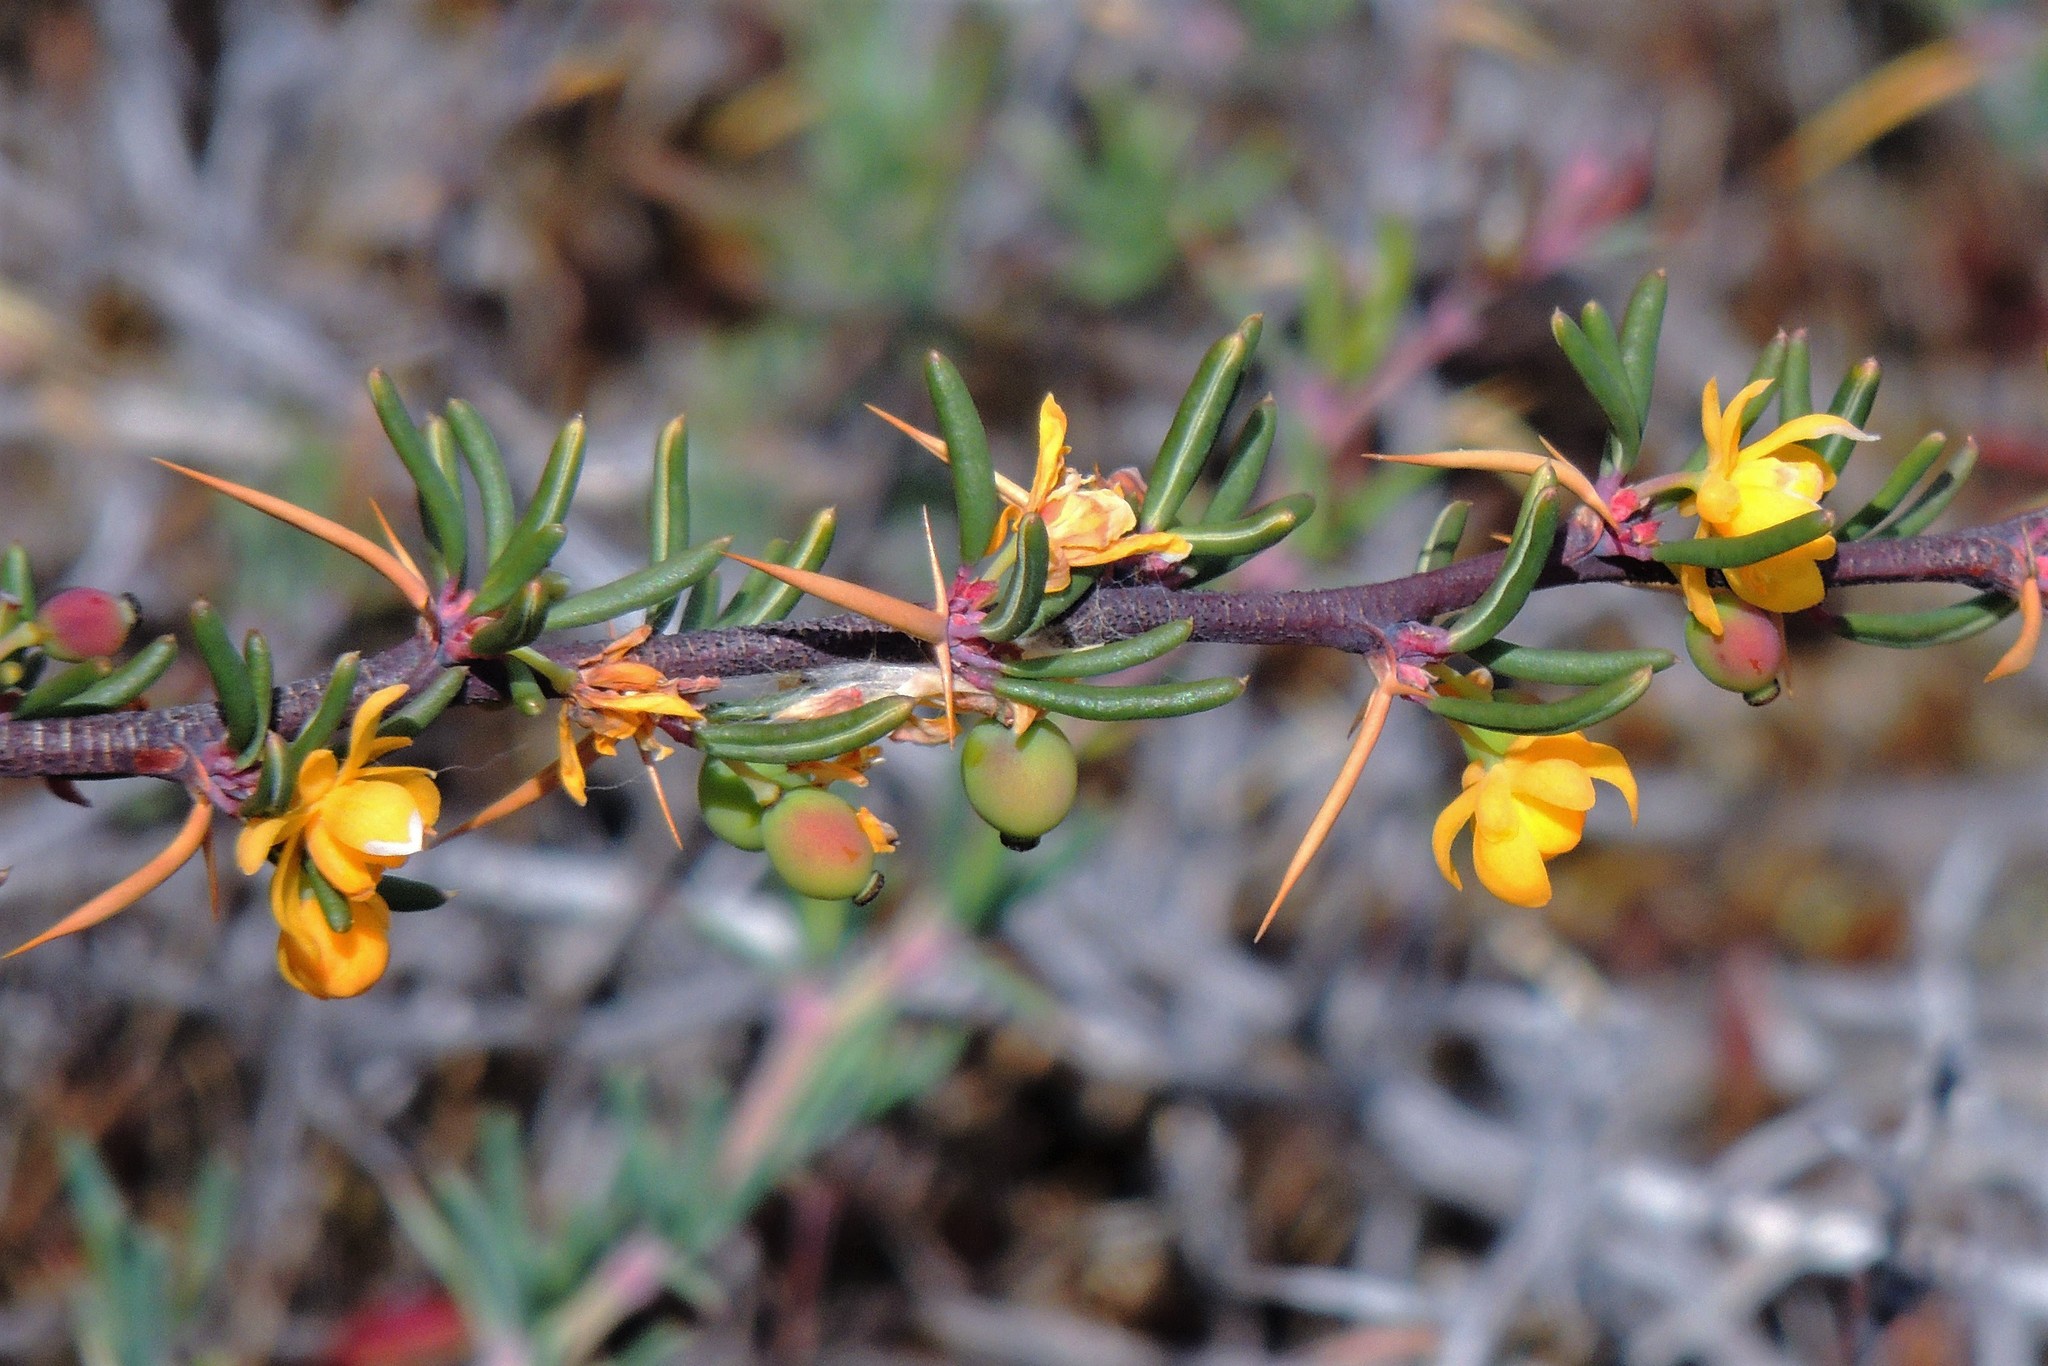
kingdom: Plantae
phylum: Tracheophyta
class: Magnoliopsida
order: Ranunculales
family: Berberidaceae
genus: Berberis
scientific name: Berberis empetrifolia
